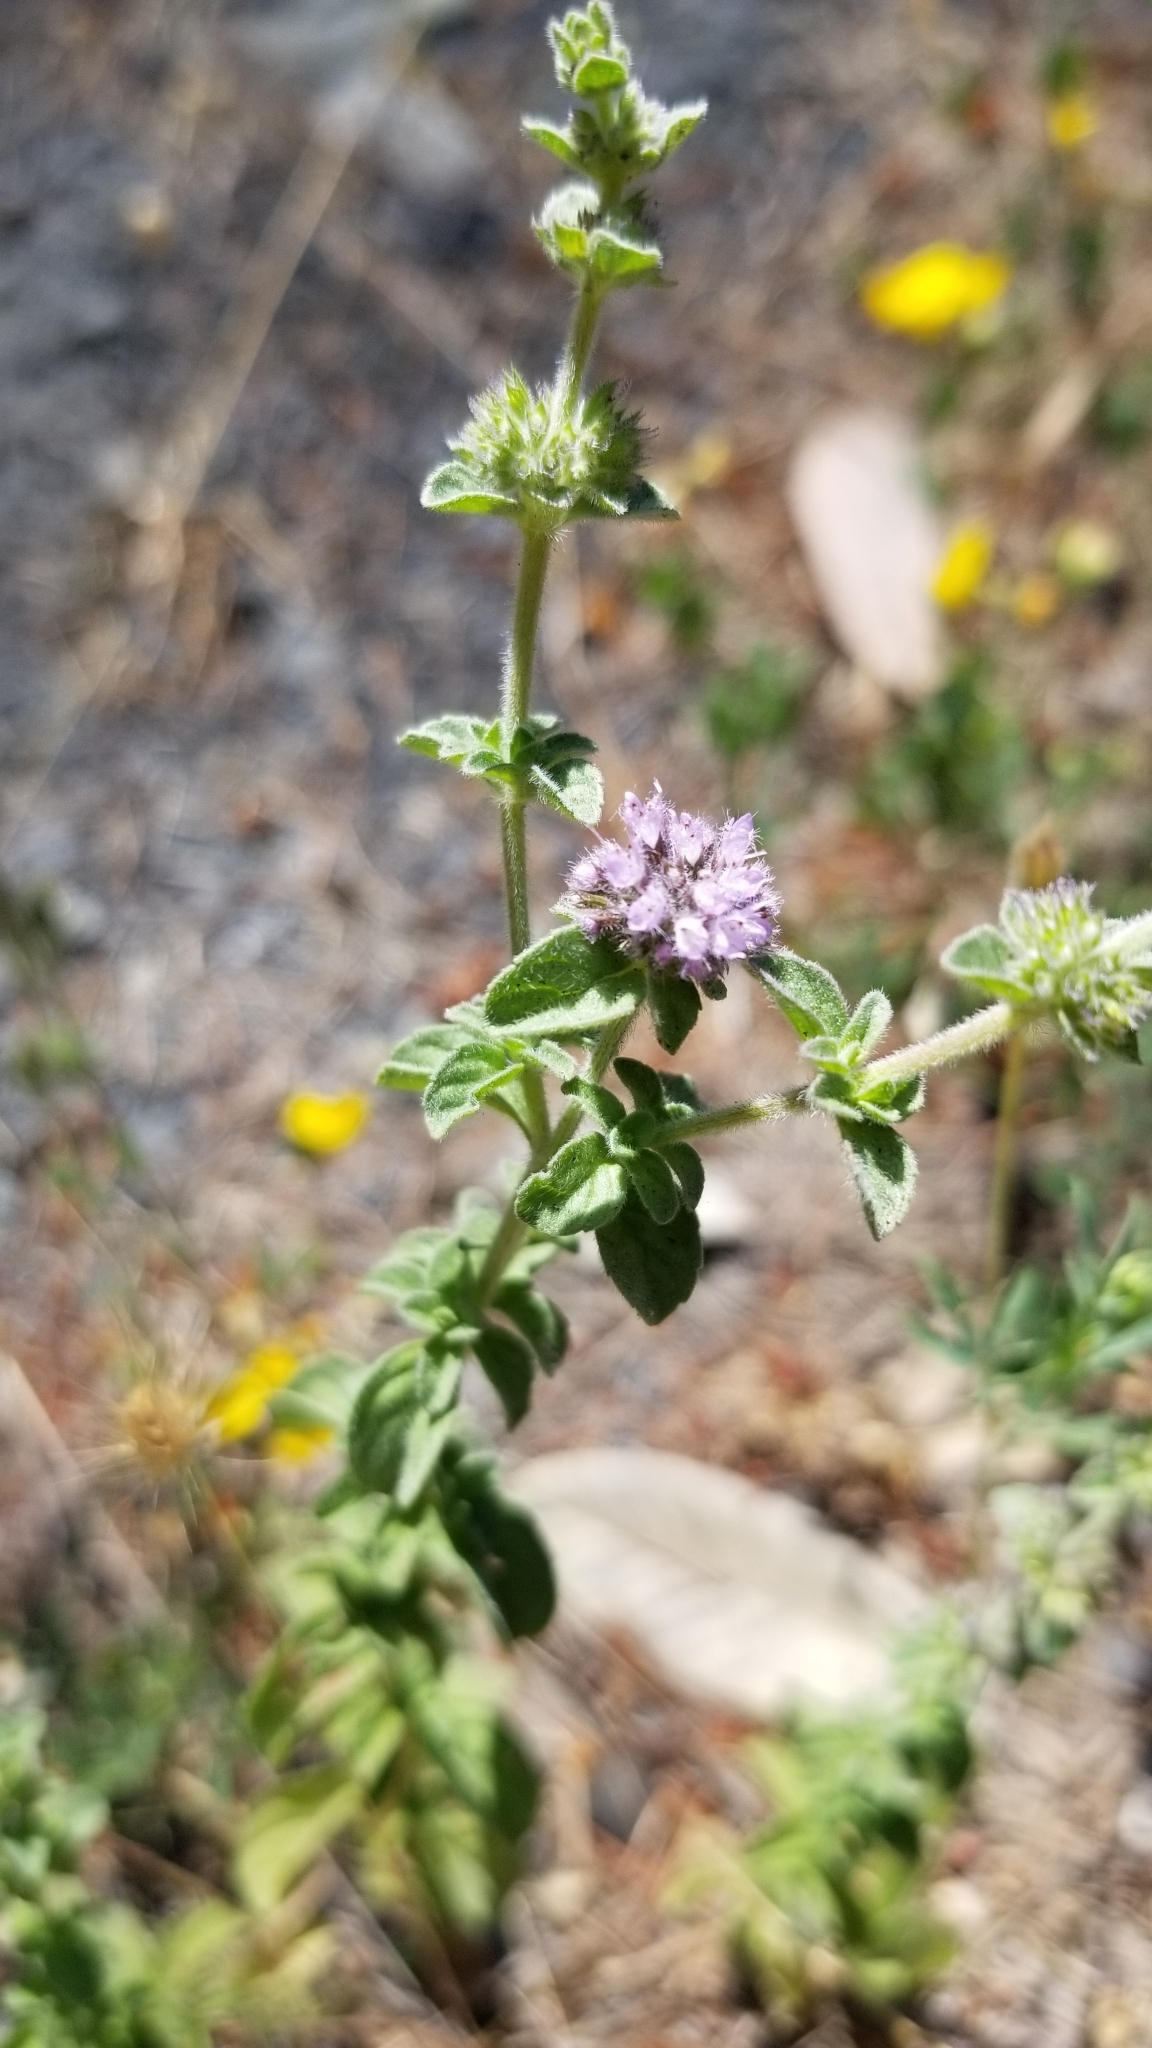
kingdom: Plantae
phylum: Tracheophyta
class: Magnoliopsida
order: Lamiales
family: Lamiaceae
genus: Mentha
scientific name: Mentha pulegium
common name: Pennyroyal
